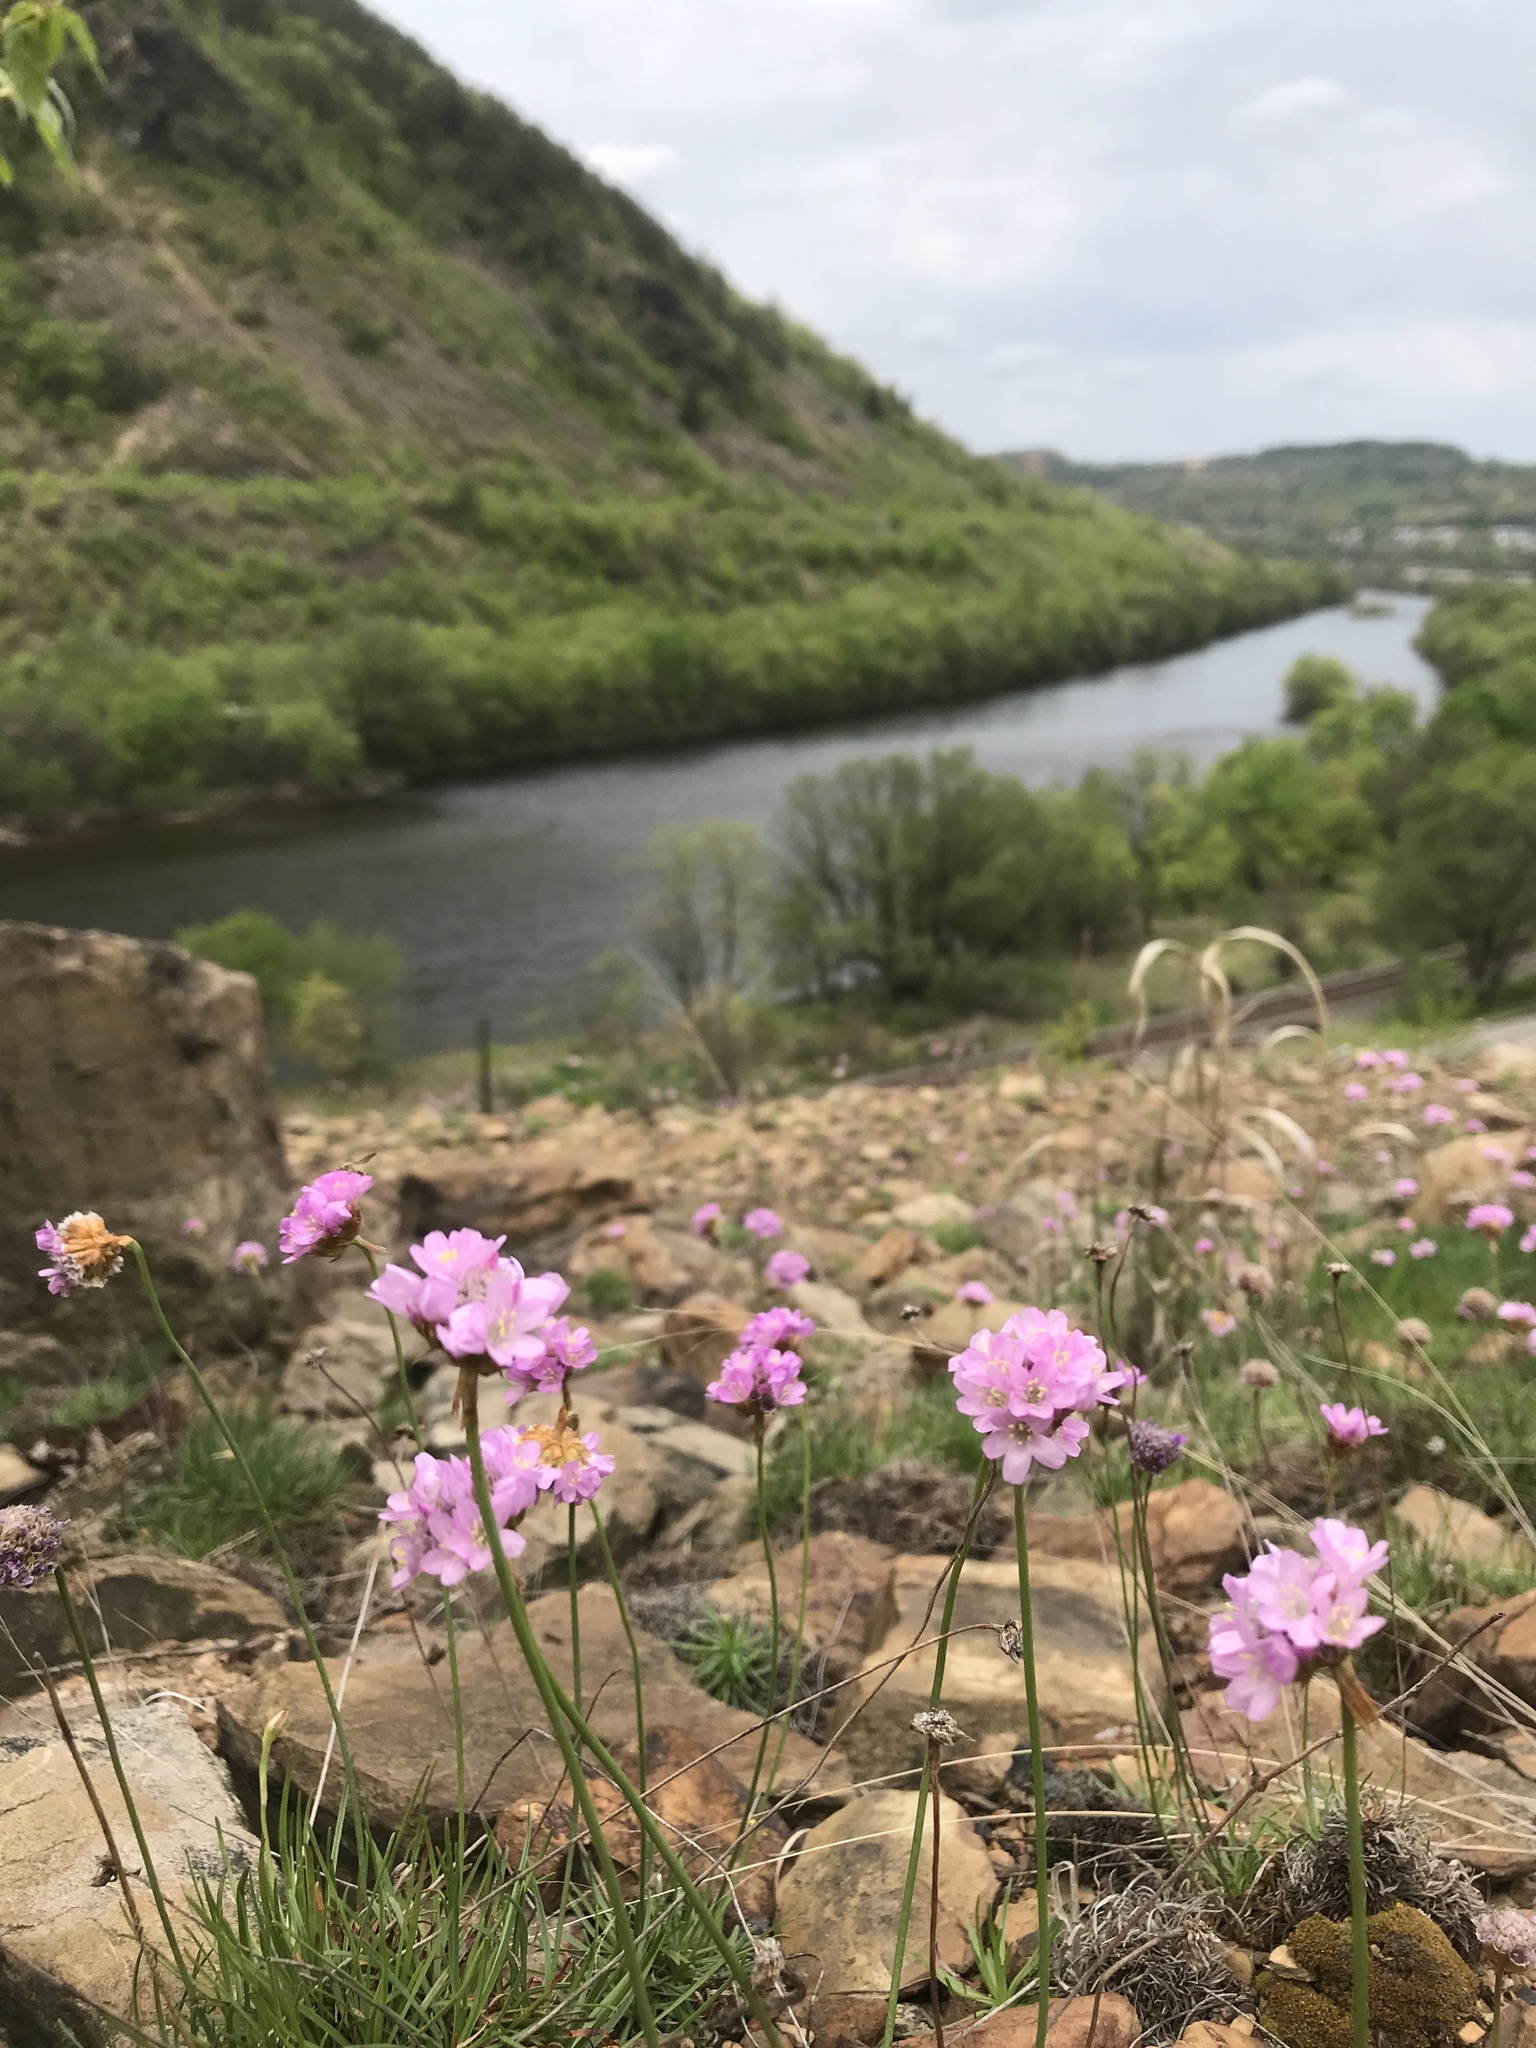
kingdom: Plantae
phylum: Tracheophyta
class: Magnoliopsida
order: Caryophyllales
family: Plumbaginaceae
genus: Armeria
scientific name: Armeria maritima
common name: Thrift
